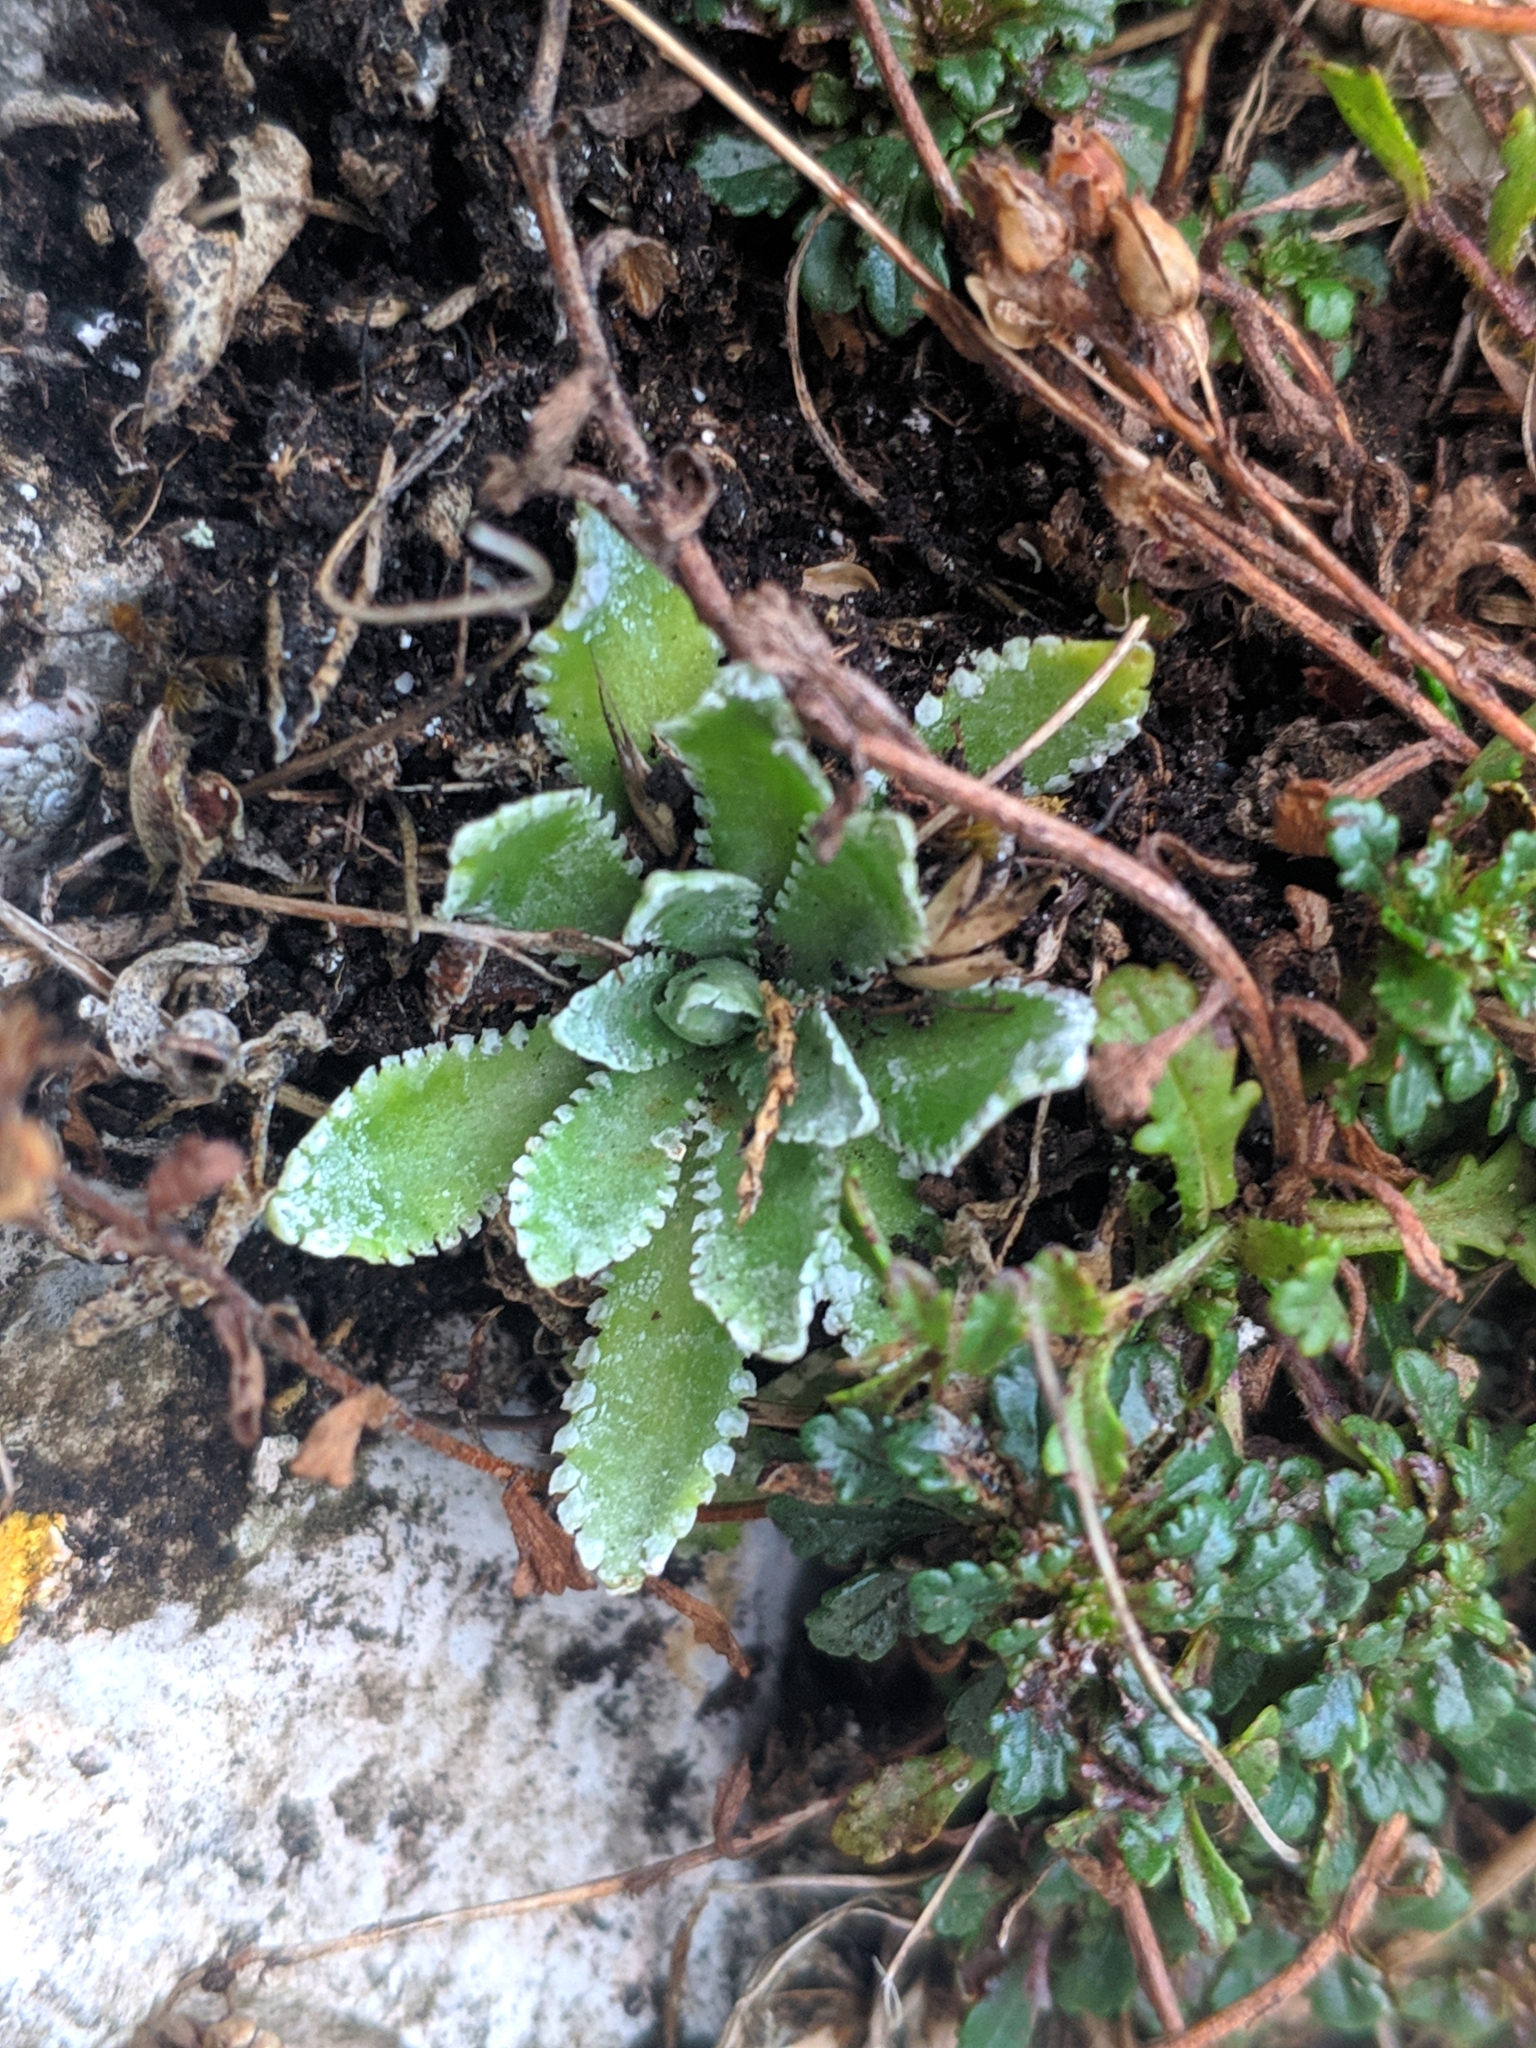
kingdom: Plantae
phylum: Tracheophyta
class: Magnoliopsida
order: Saxifragales
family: Saxifragaceae
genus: Saxifraga
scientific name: Saxifraga paniculata
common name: Livelong saxifrage
